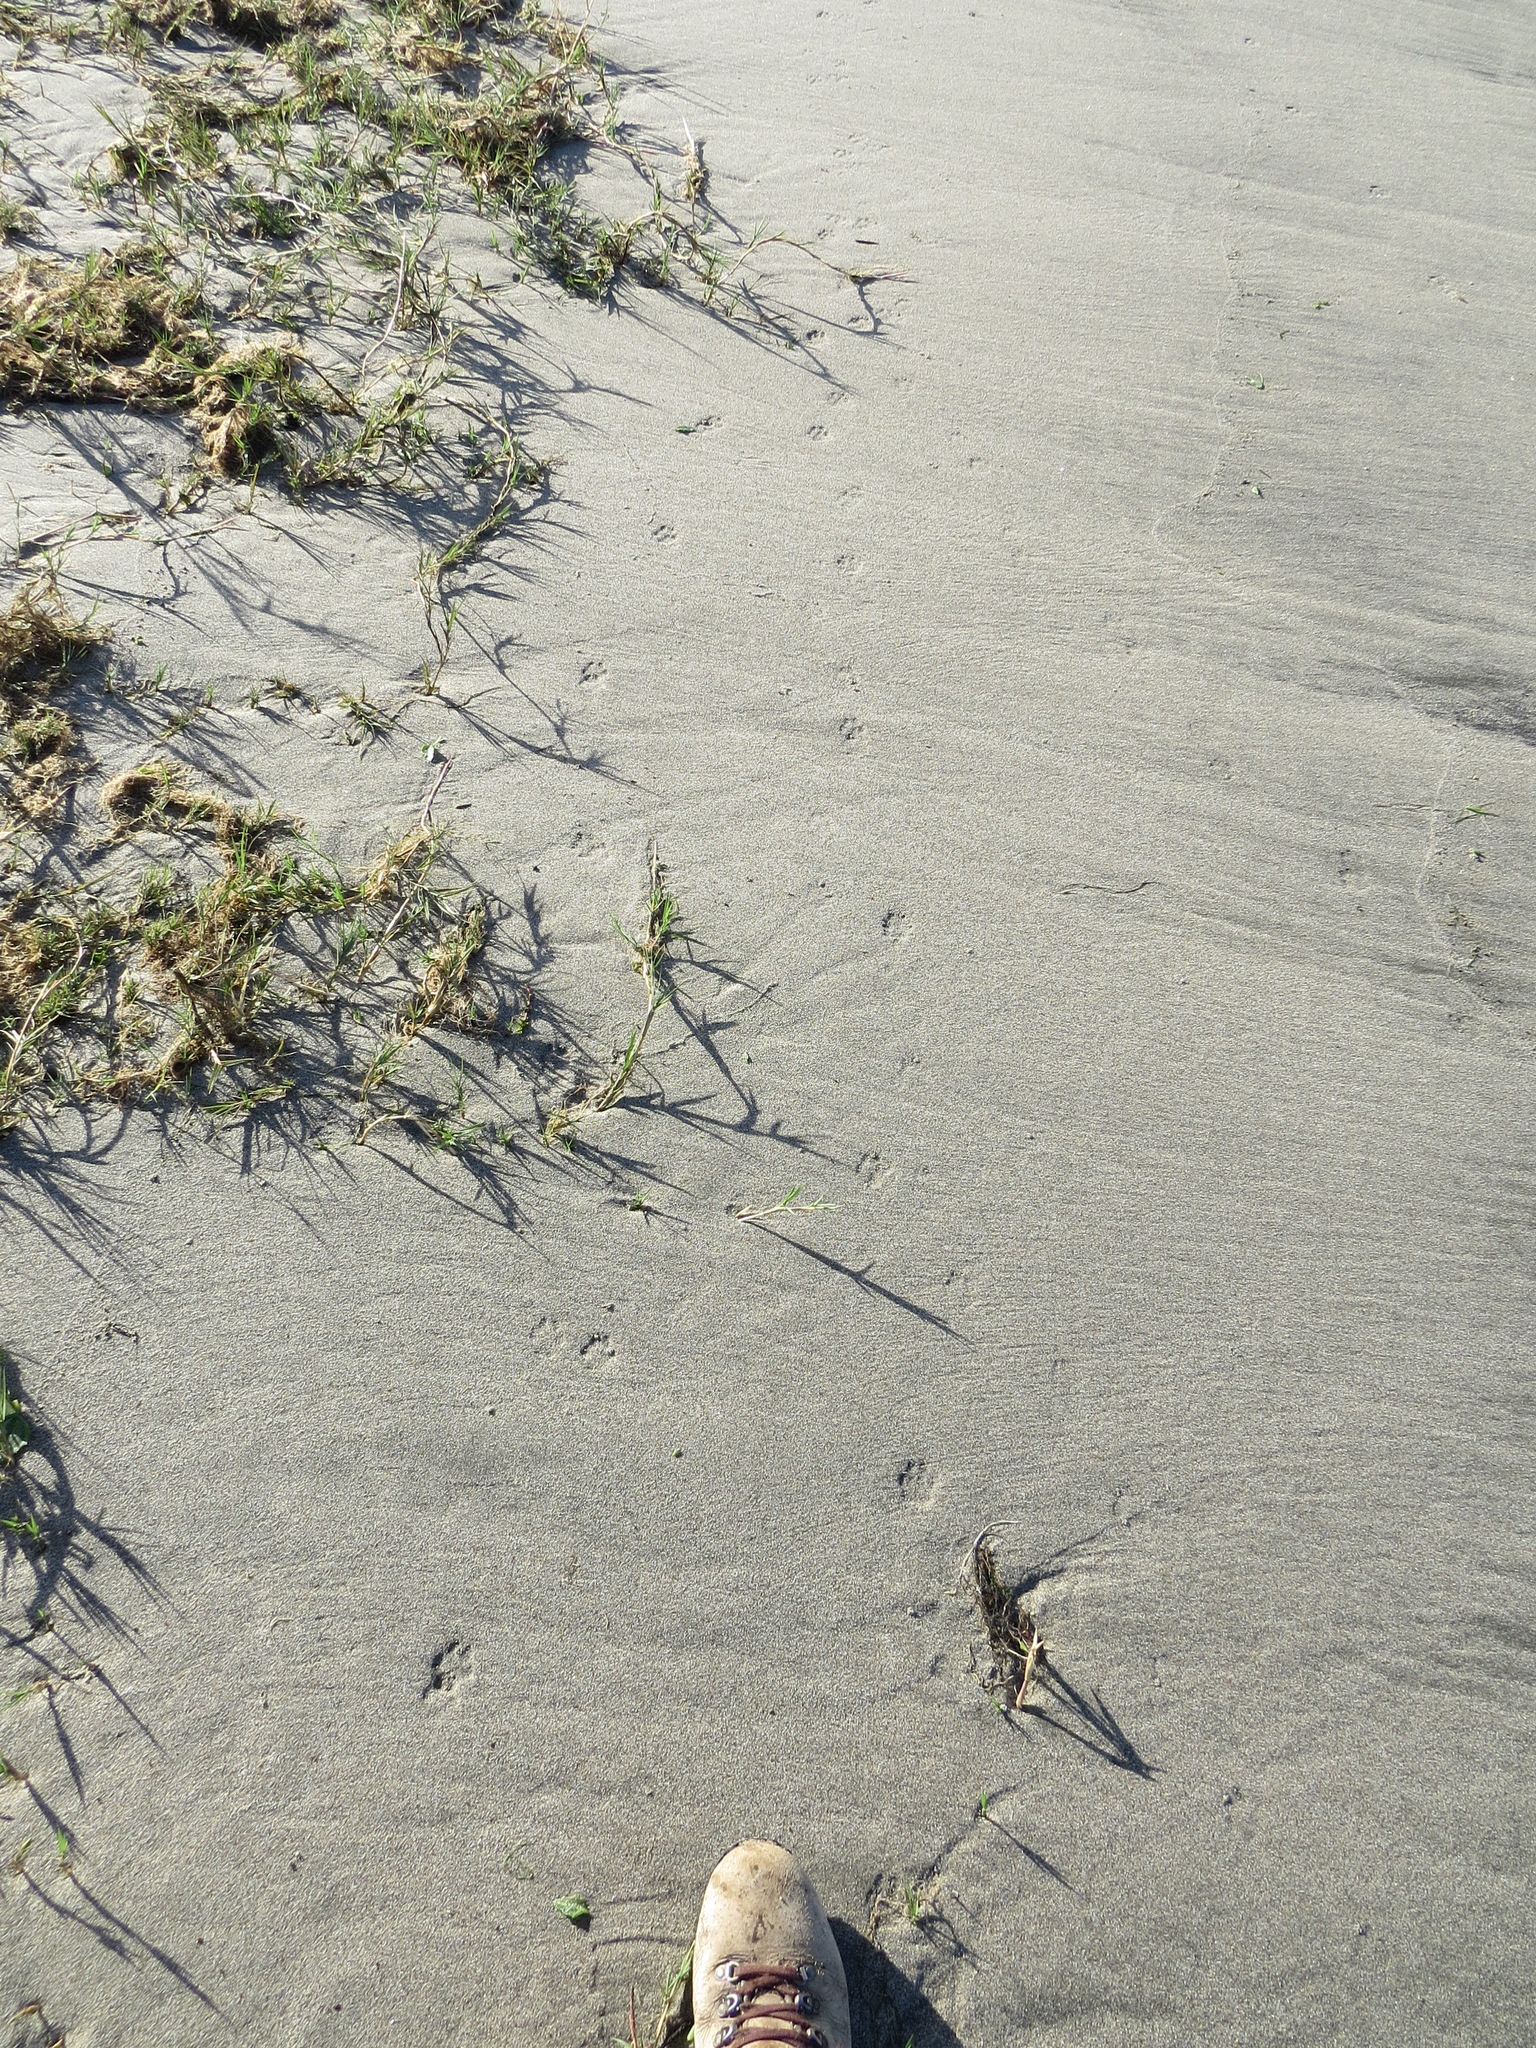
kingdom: Animalia
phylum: Chordata
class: Mammalia
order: Carnivora
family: Canidae
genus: Urocyon
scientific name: Urocyon cinereoargenteus
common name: Gray fox
